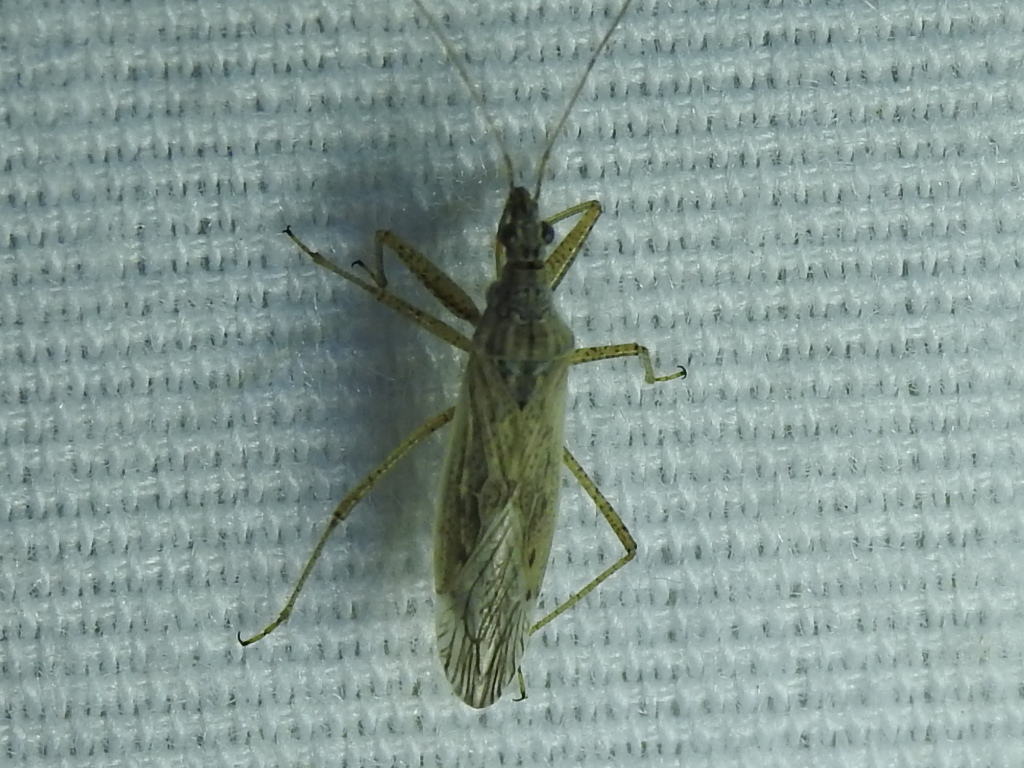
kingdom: Animalia
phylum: Arthropoda
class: Insecta
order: Hemiptera
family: Nabidae
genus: Nabis
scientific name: Nabis americoferus
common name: Common damsel bug
